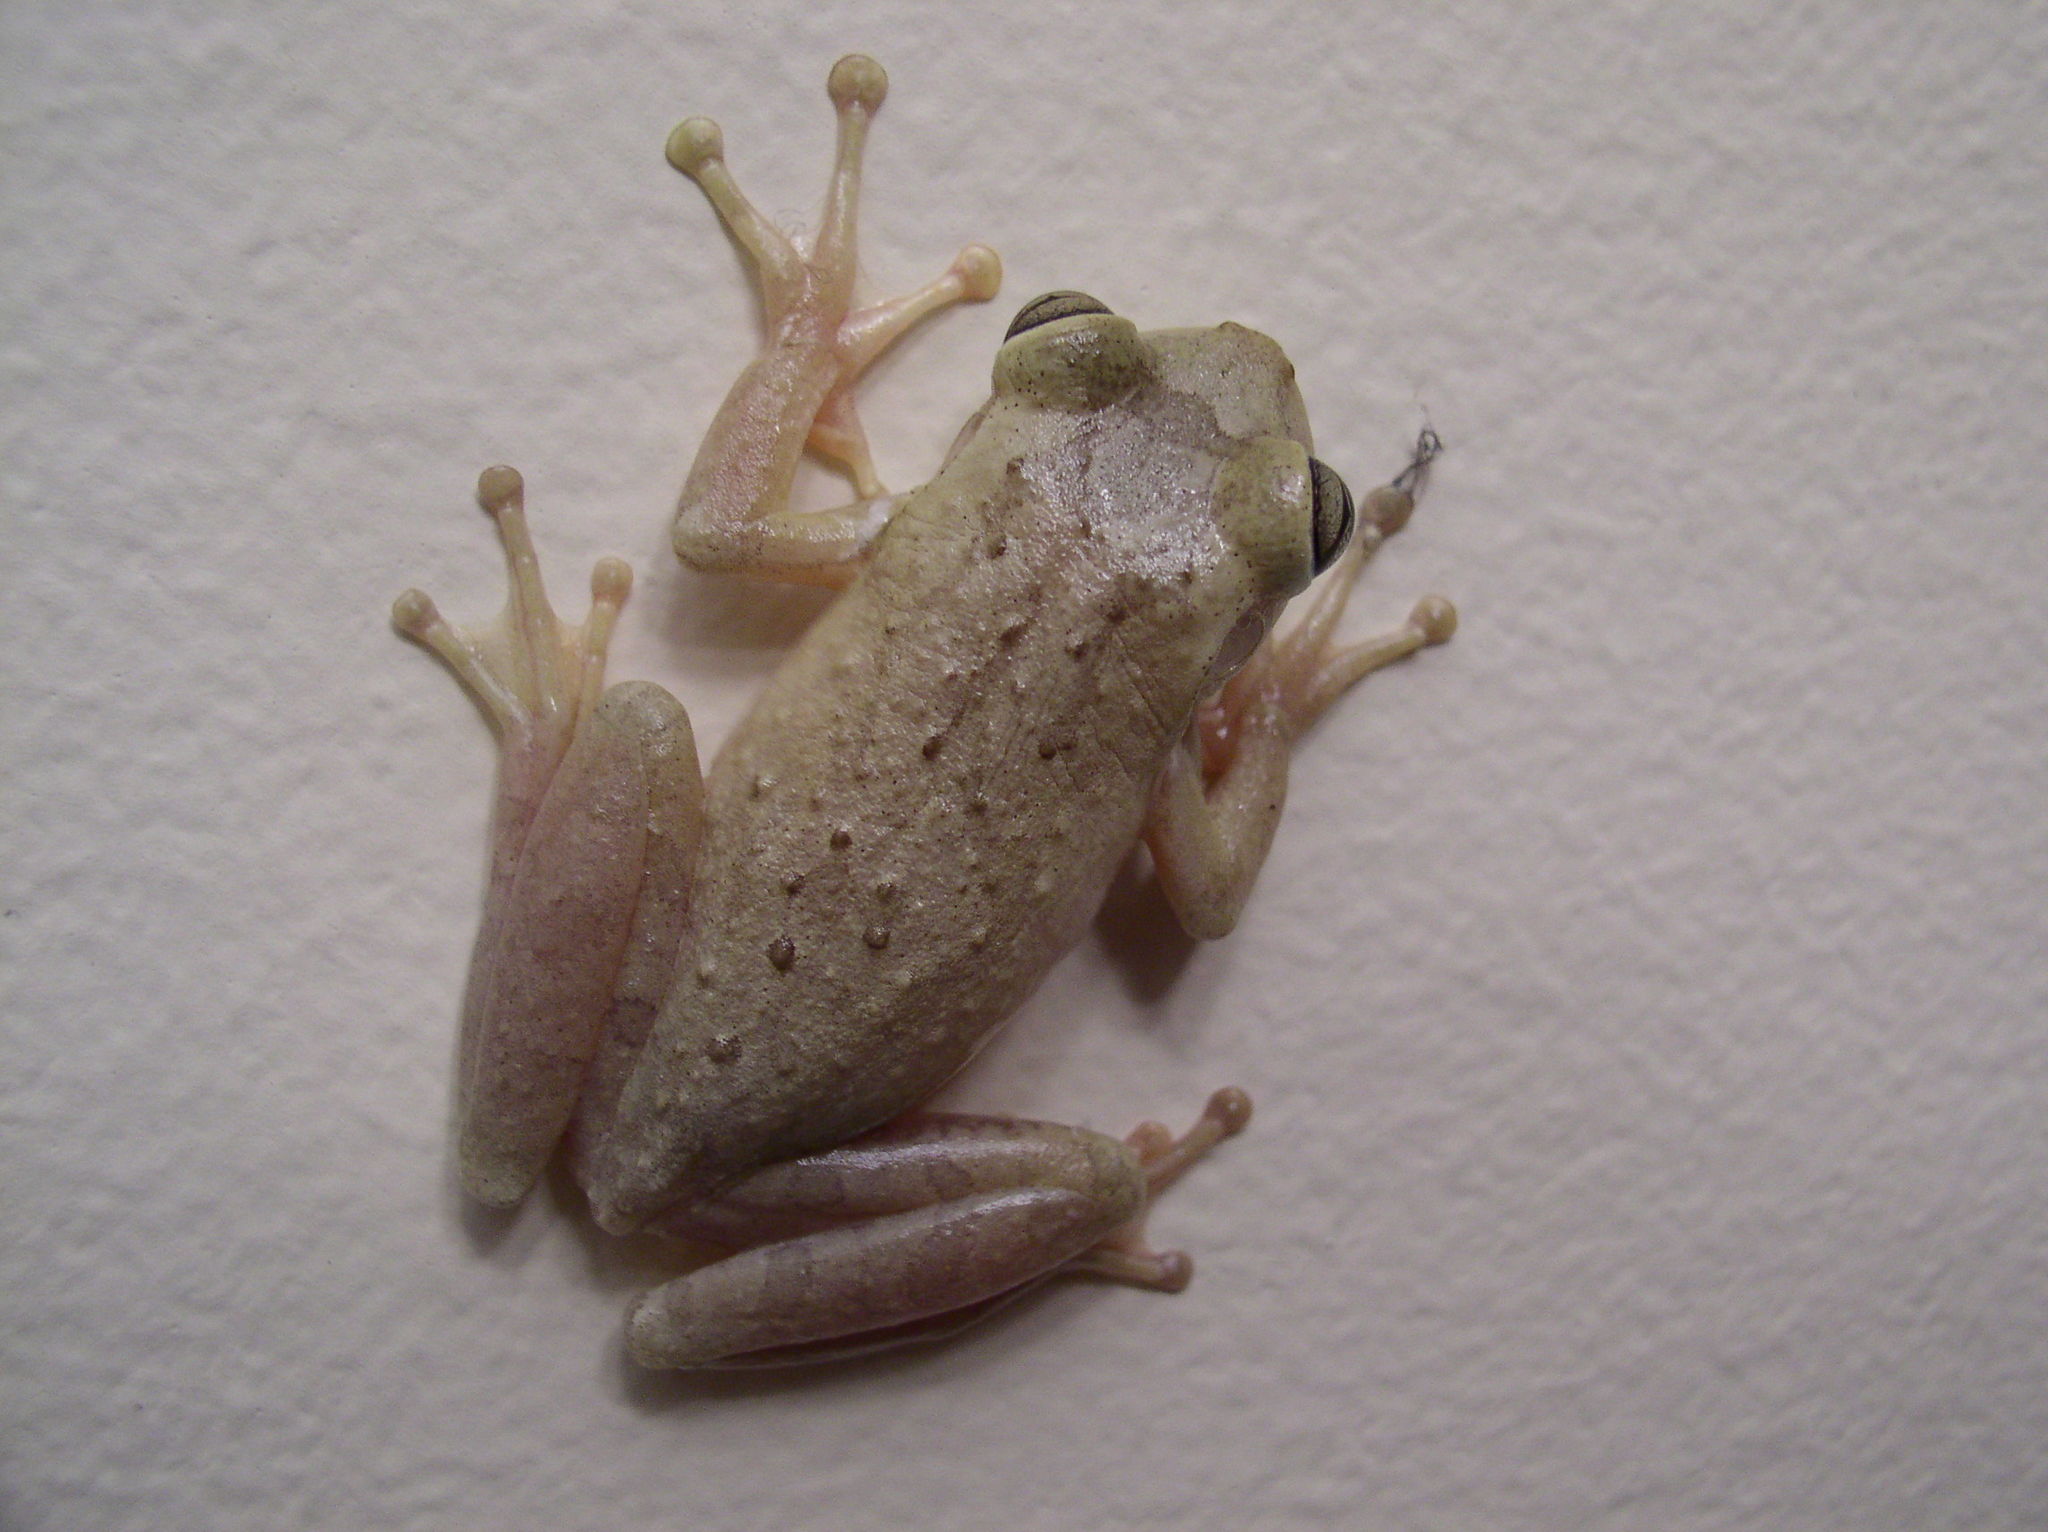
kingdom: Animalia
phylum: Chordata
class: Amphibia
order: Anura
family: Hylidae
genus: Osteopilus
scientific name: Osteopilus septentrionalis
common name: Cuban treefrog
